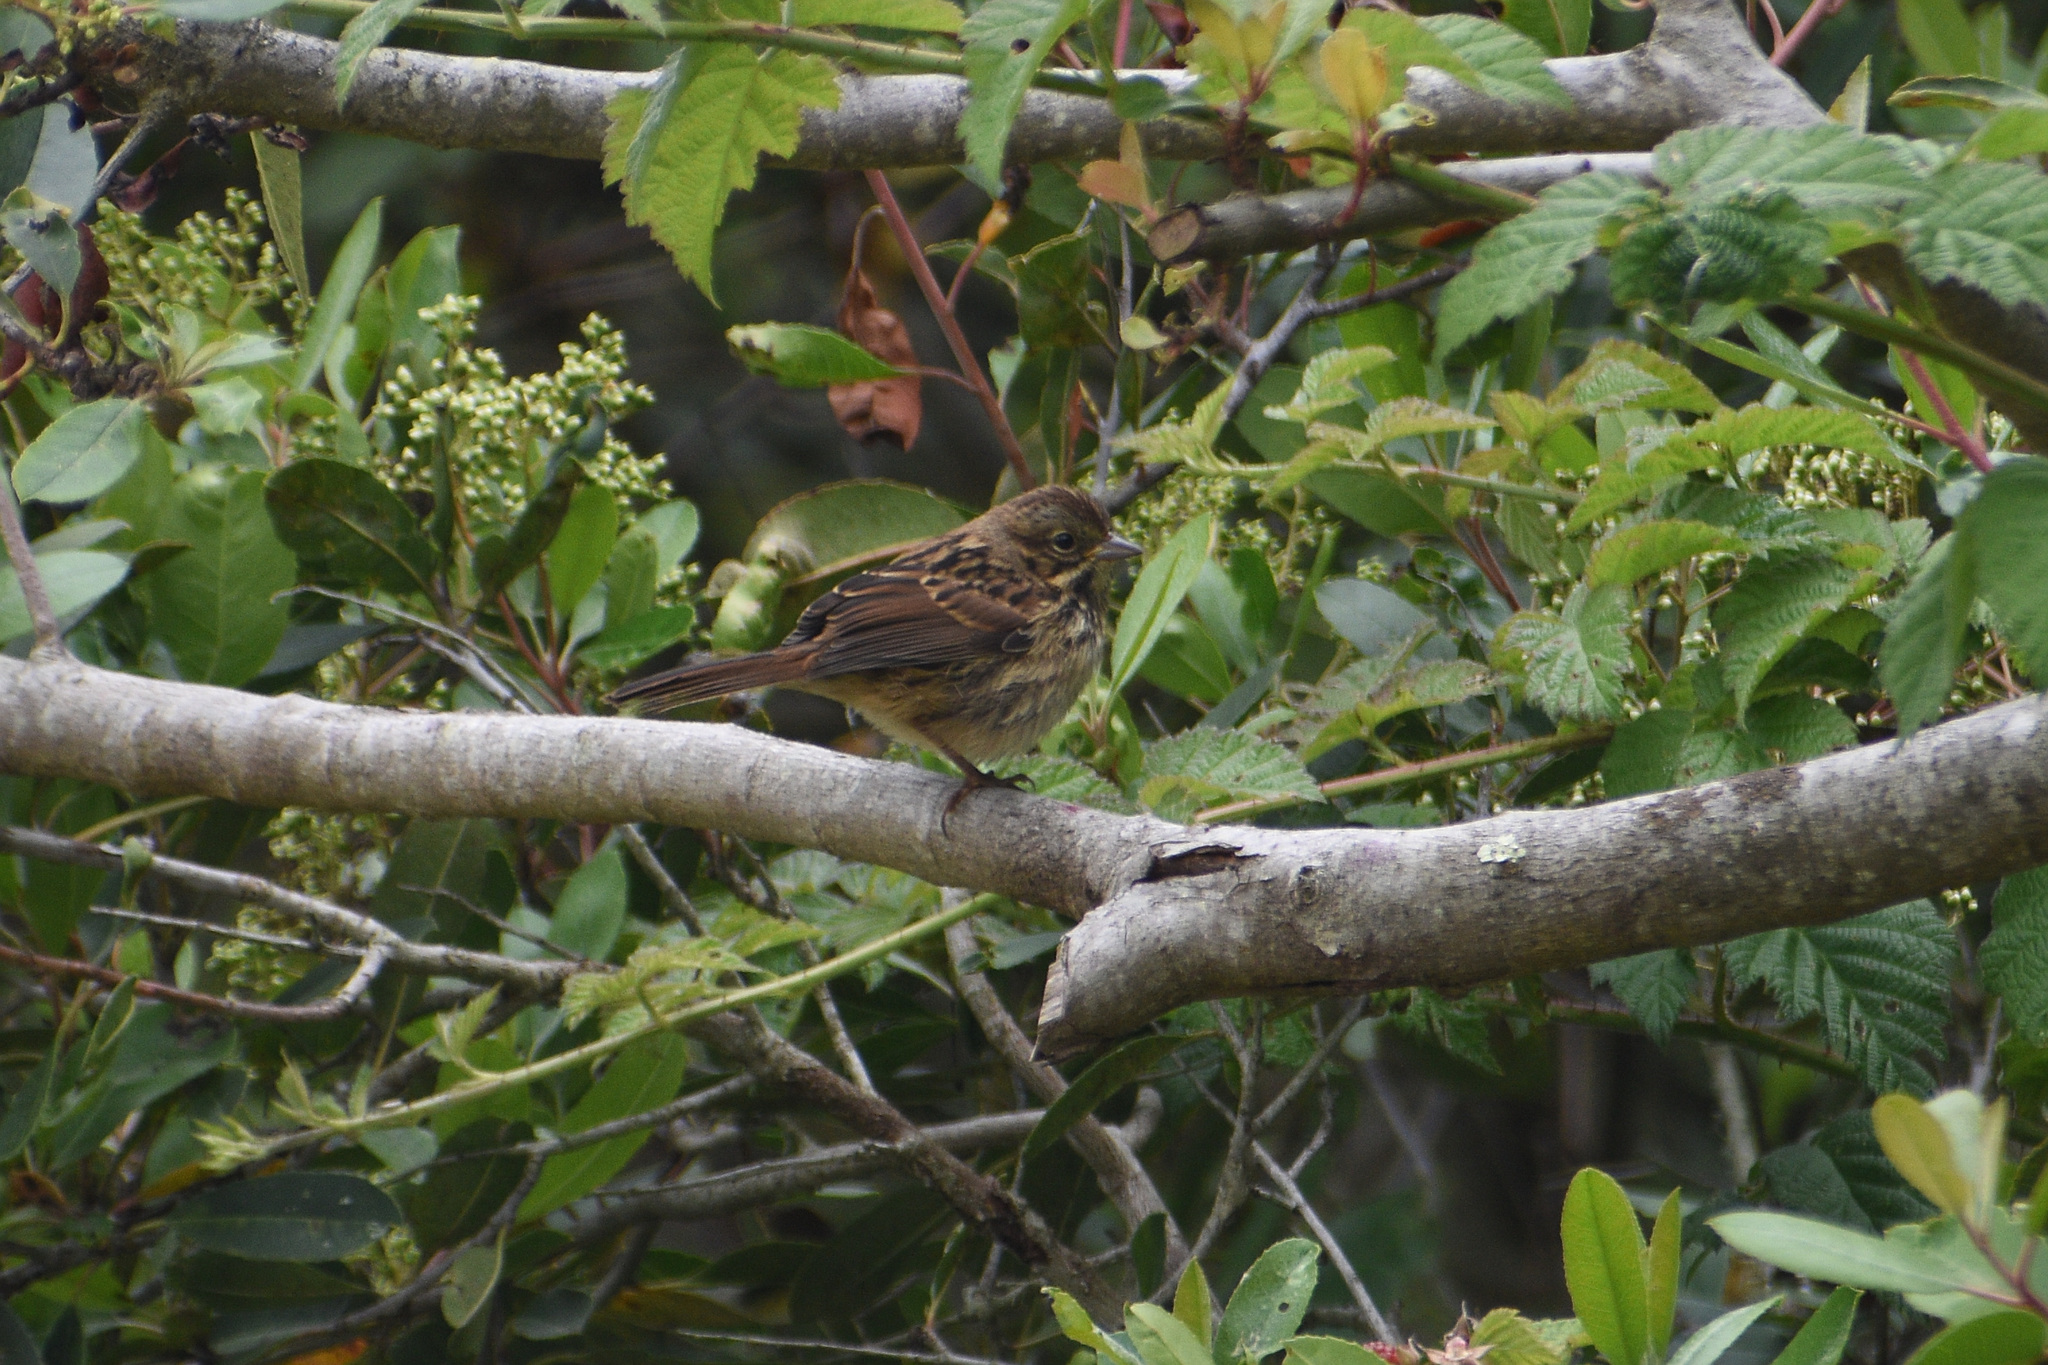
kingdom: Animalia
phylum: Chordata
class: Aves
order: Passeriformes
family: Passerellidae
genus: Melospiza
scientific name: Melospiza melodia
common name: Song sparrow
